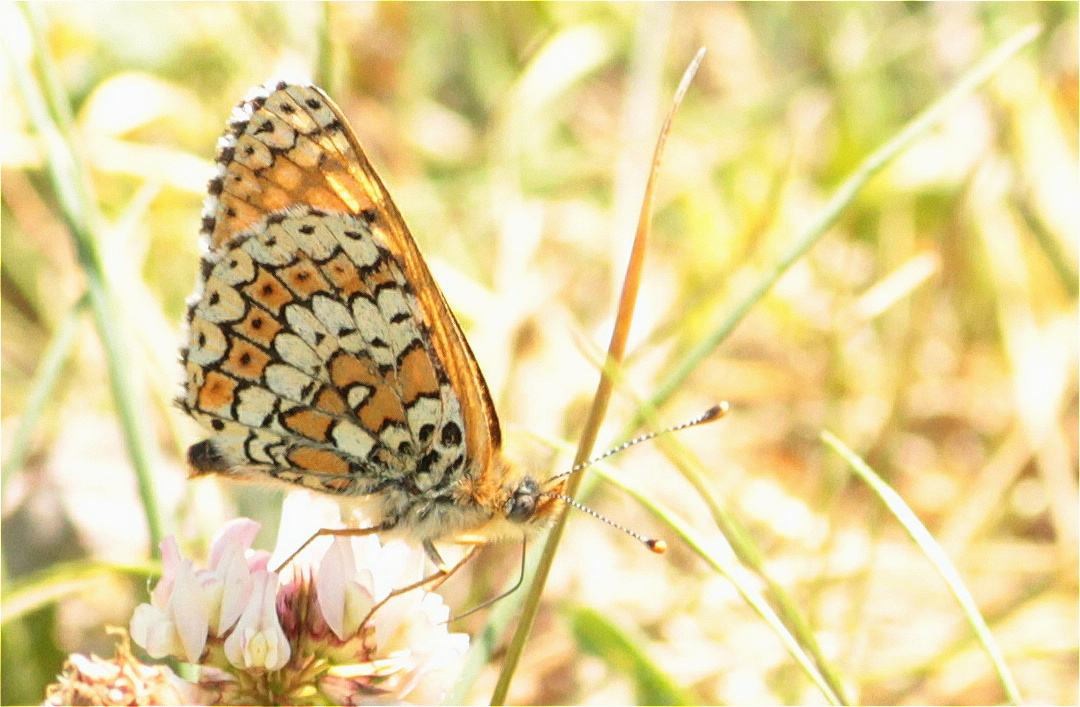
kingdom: Animalia
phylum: Arthropoda
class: Insecta
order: Lepidoptera
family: Nymphalidae
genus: Melitaea
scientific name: Melitaea cinxia
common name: Glanville fritillary
